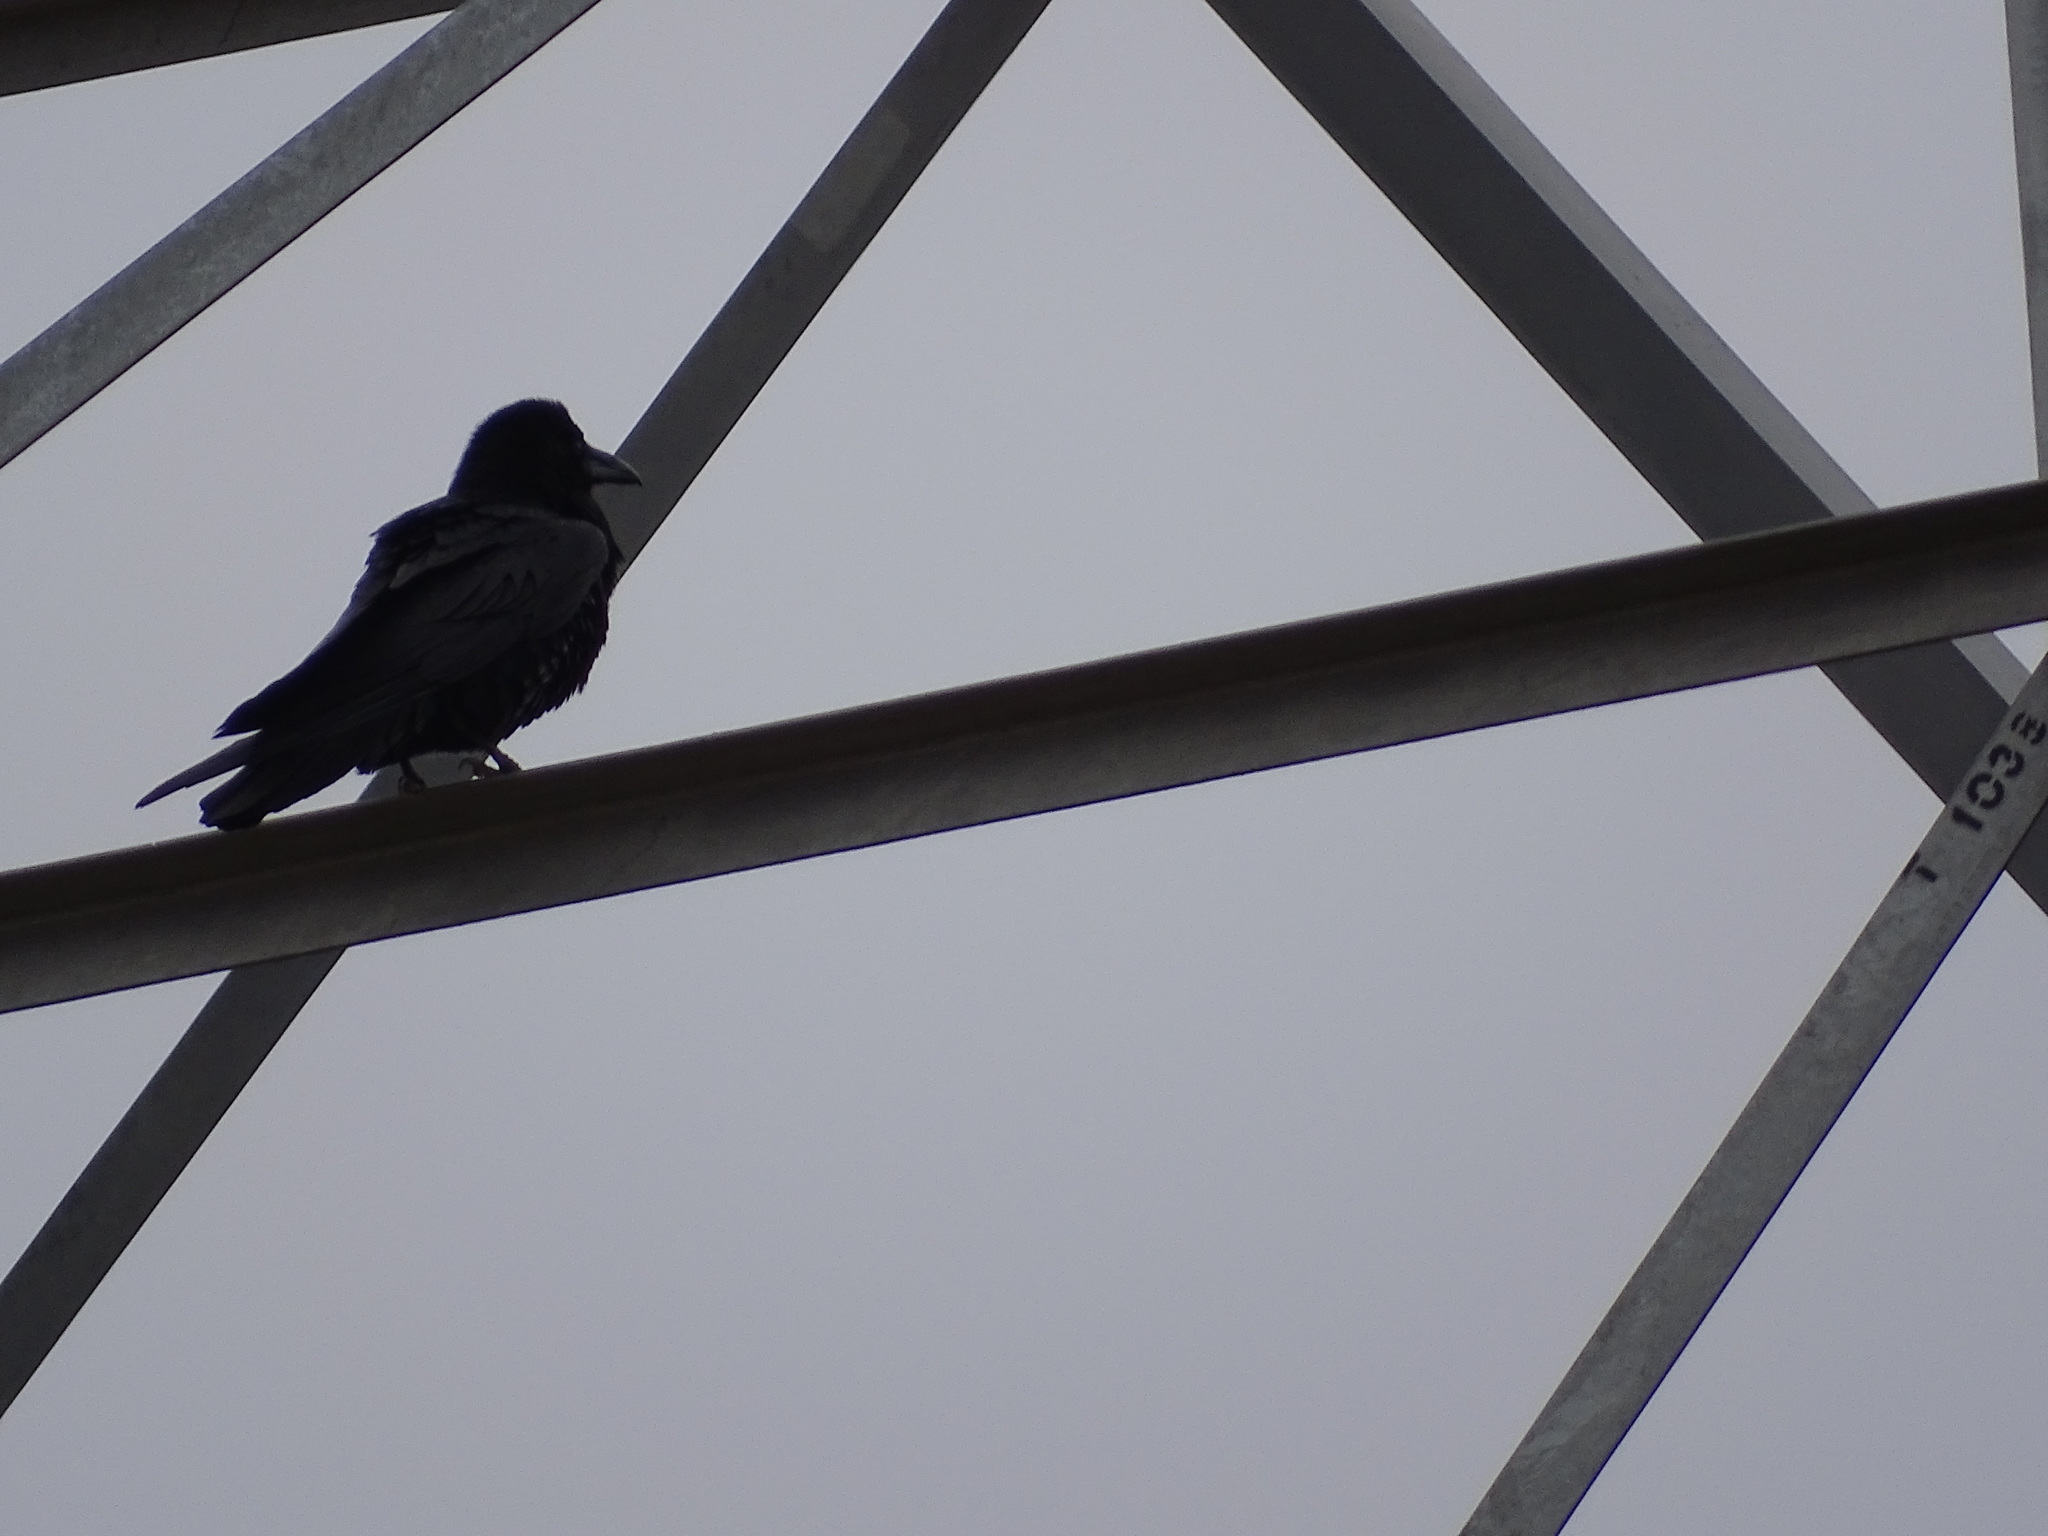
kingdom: Animalia
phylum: Chordata
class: Aves
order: Passeriformes
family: Corvidae
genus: Corvus
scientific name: Corvus corax
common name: Common raven
